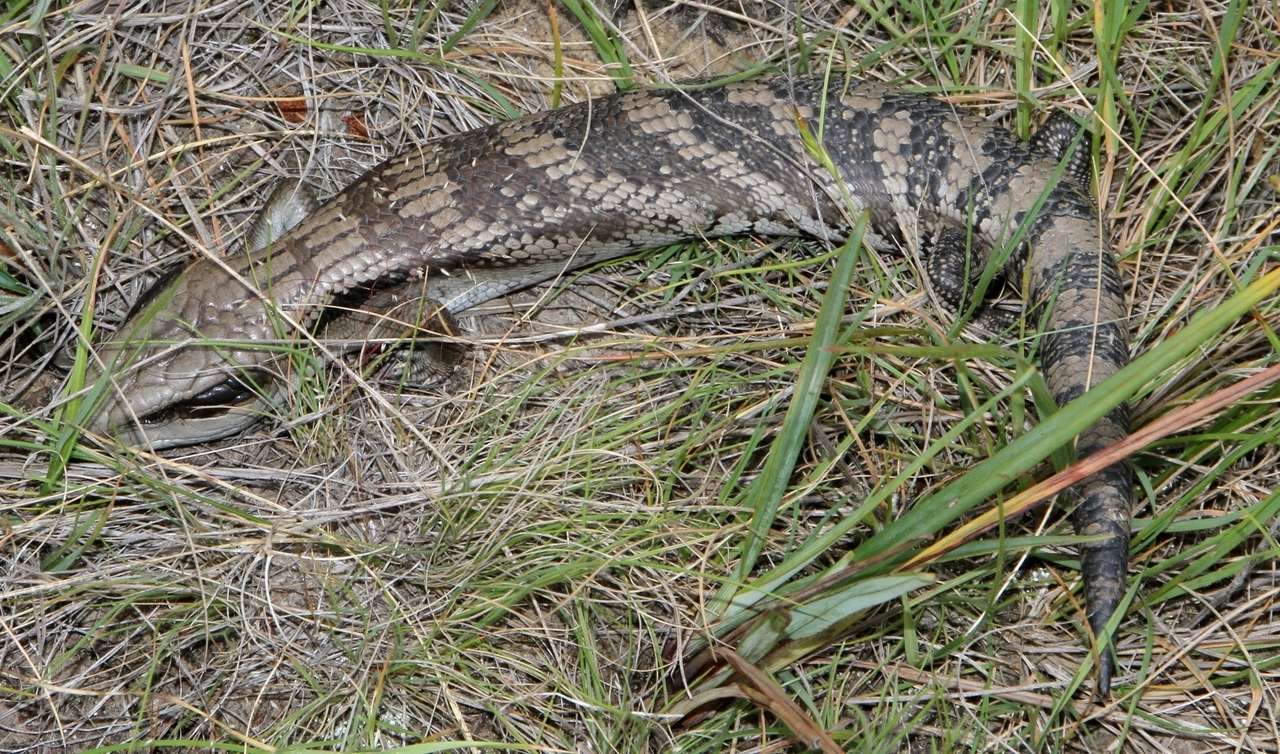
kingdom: Animalia
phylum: Chordata
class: Squamata
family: Scincidae
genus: Tiliqua
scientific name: Tiliqua scincoides
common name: Common bluetongue
